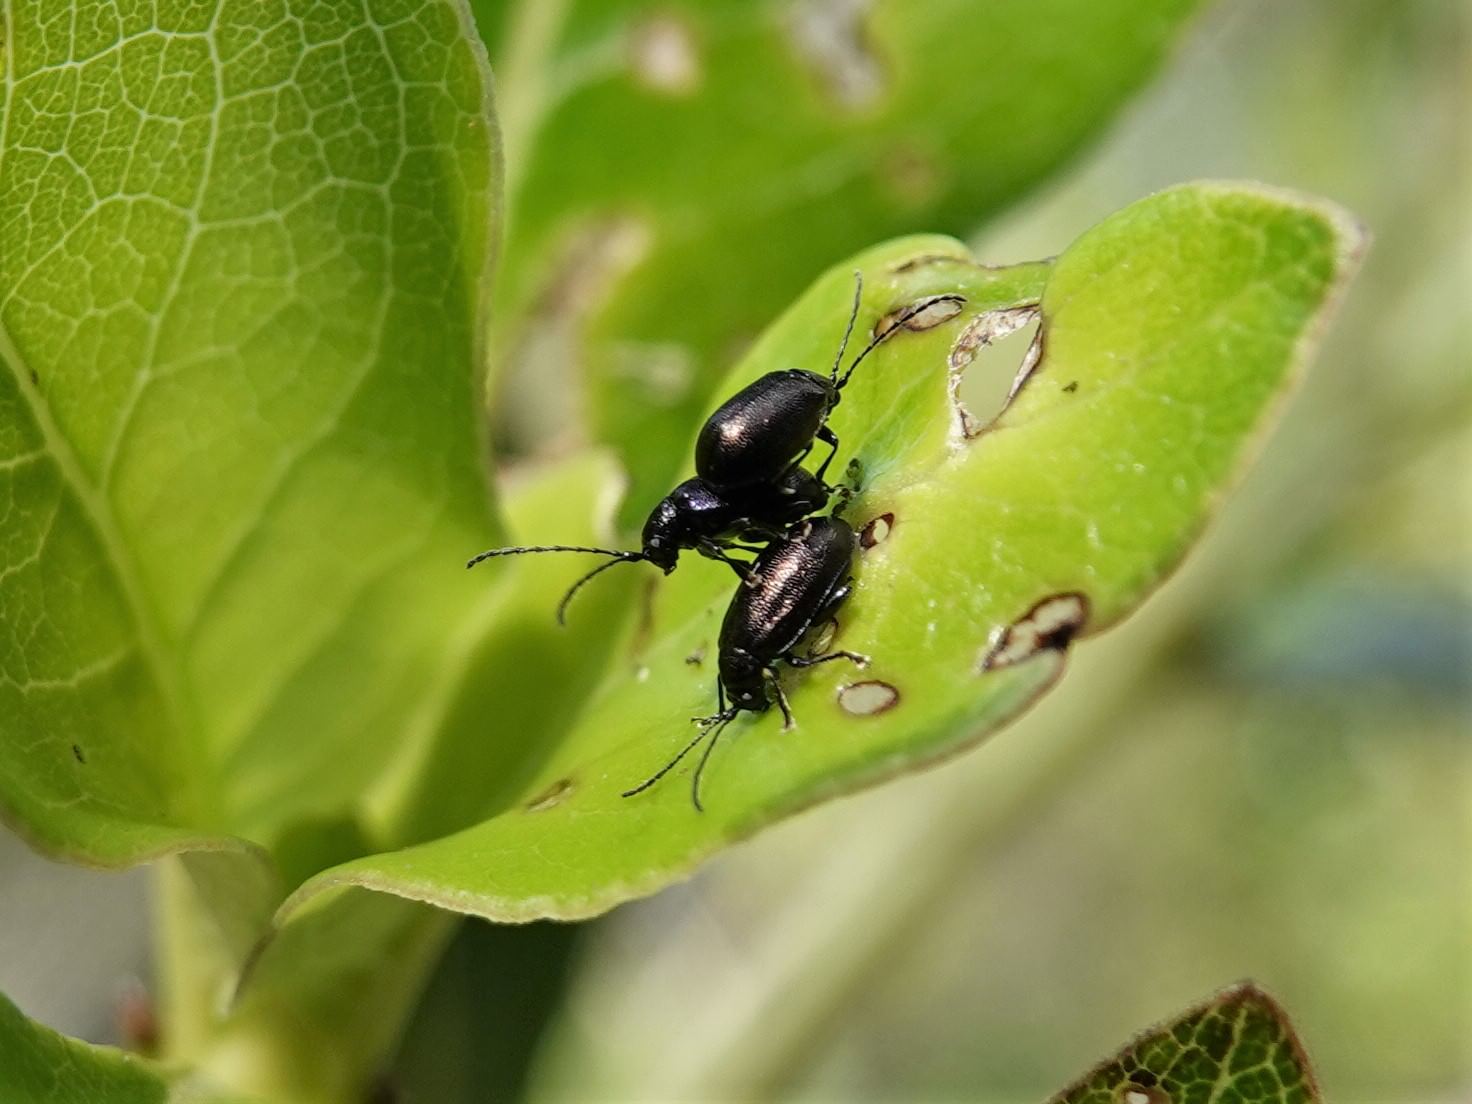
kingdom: Animalia
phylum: Arthropoda
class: Insecta
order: Coleoptera
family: Chrysomelidae
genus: Pleuraltica
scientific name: Pleuraltica cyanea
